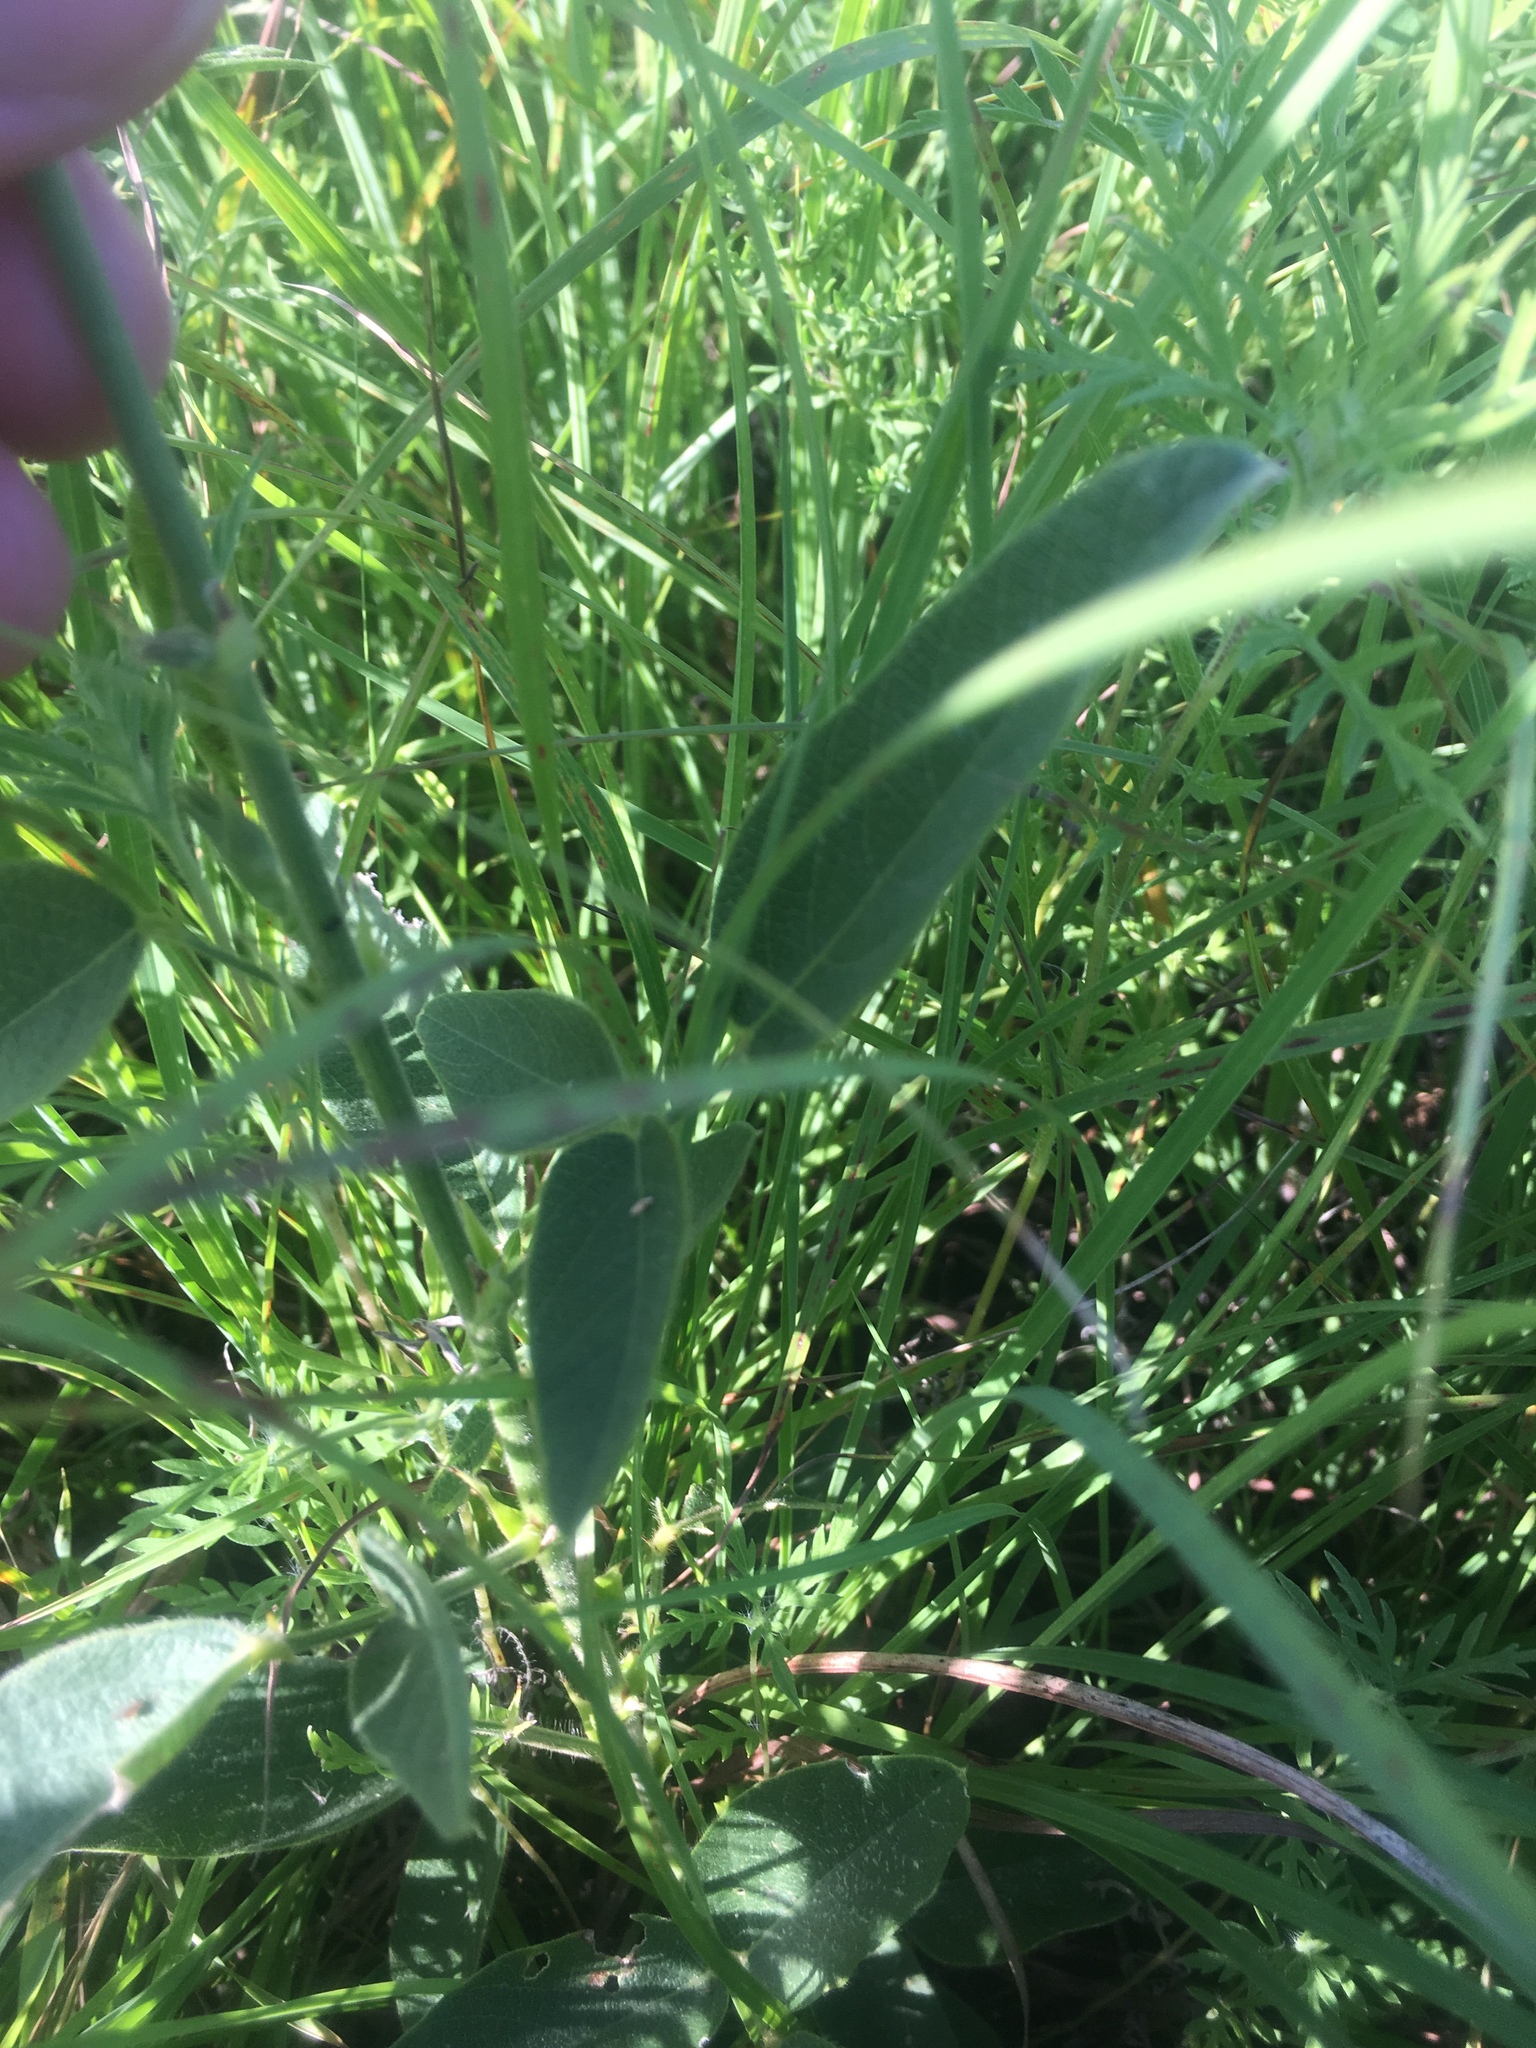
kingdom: Plantae
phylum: Tracheophyta
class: Magnoliopsida
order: Fabales
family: Fabaceae
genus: Desmodium
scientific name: Desmodium illinoense
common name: Illinois tick-clover
